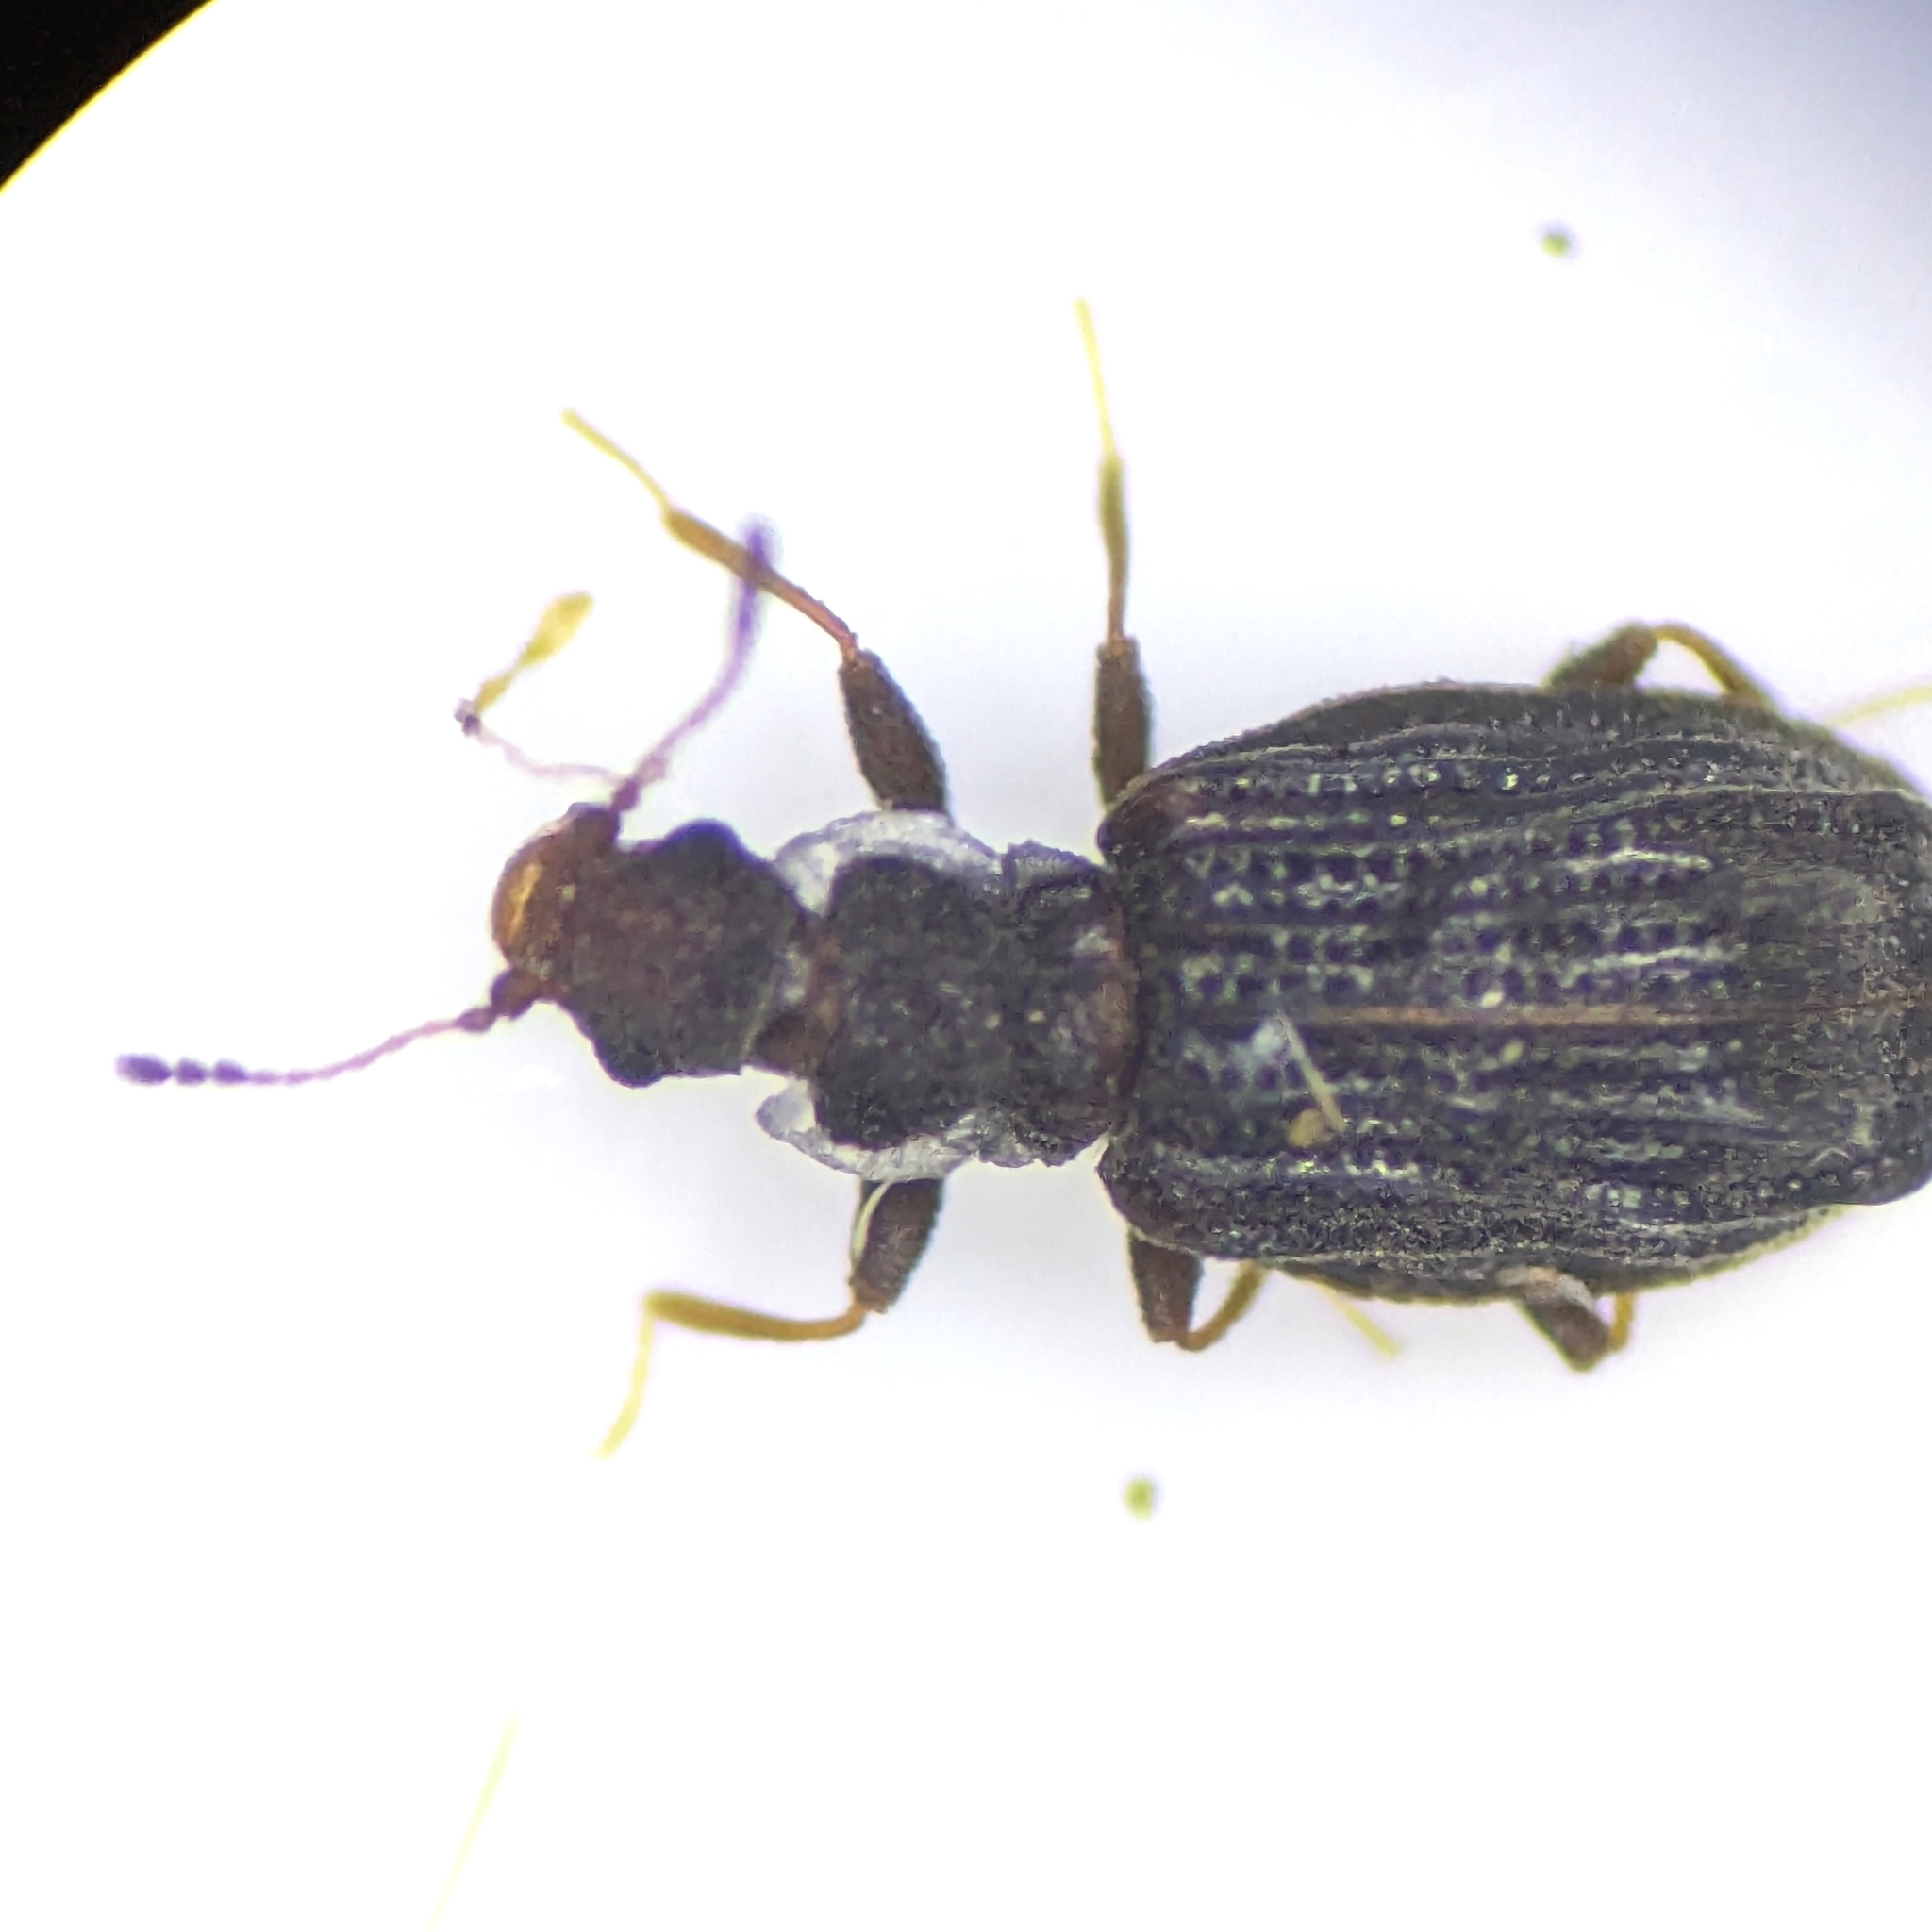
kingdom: Animalia
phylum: Arthropoda
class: Insecta
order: Coleoptera
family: Latridiidae
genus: Cartodere
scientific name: Cartodere nodifer
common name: Humpbacked minute scavenger beetle
